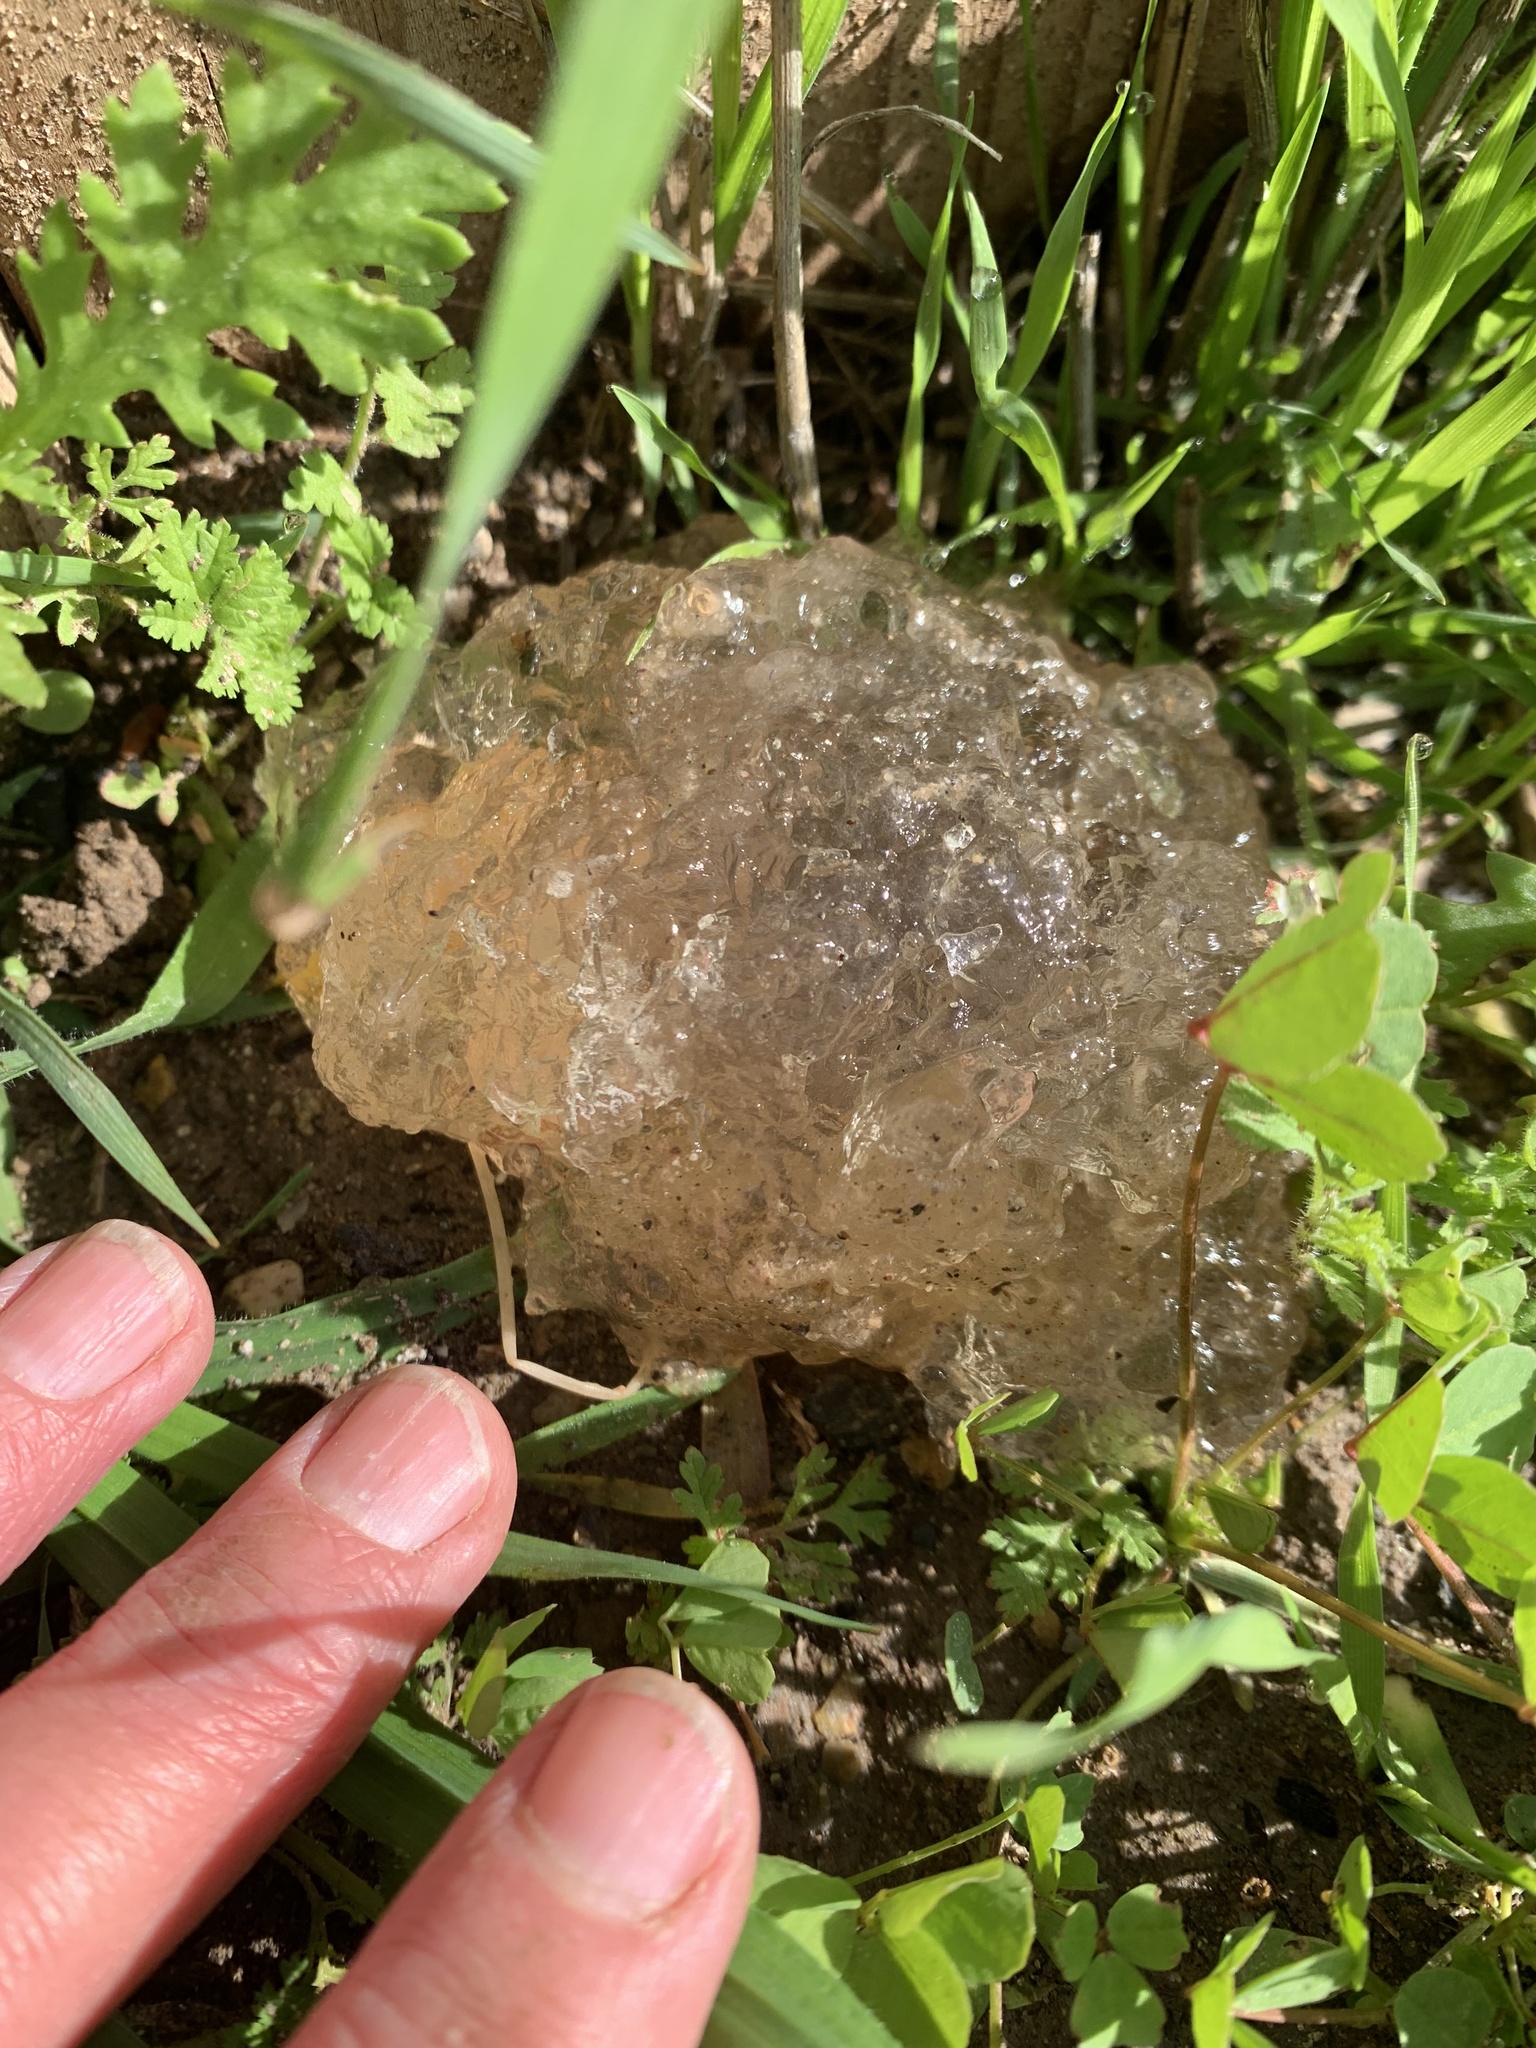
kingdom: Fungi
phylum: Basidiomycota
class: Agaricomycetes
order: Auriculariales
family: Hyaloriaceae
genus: Myxarium
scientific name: Myxarium nucleatum
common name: Crystal brain fungus
